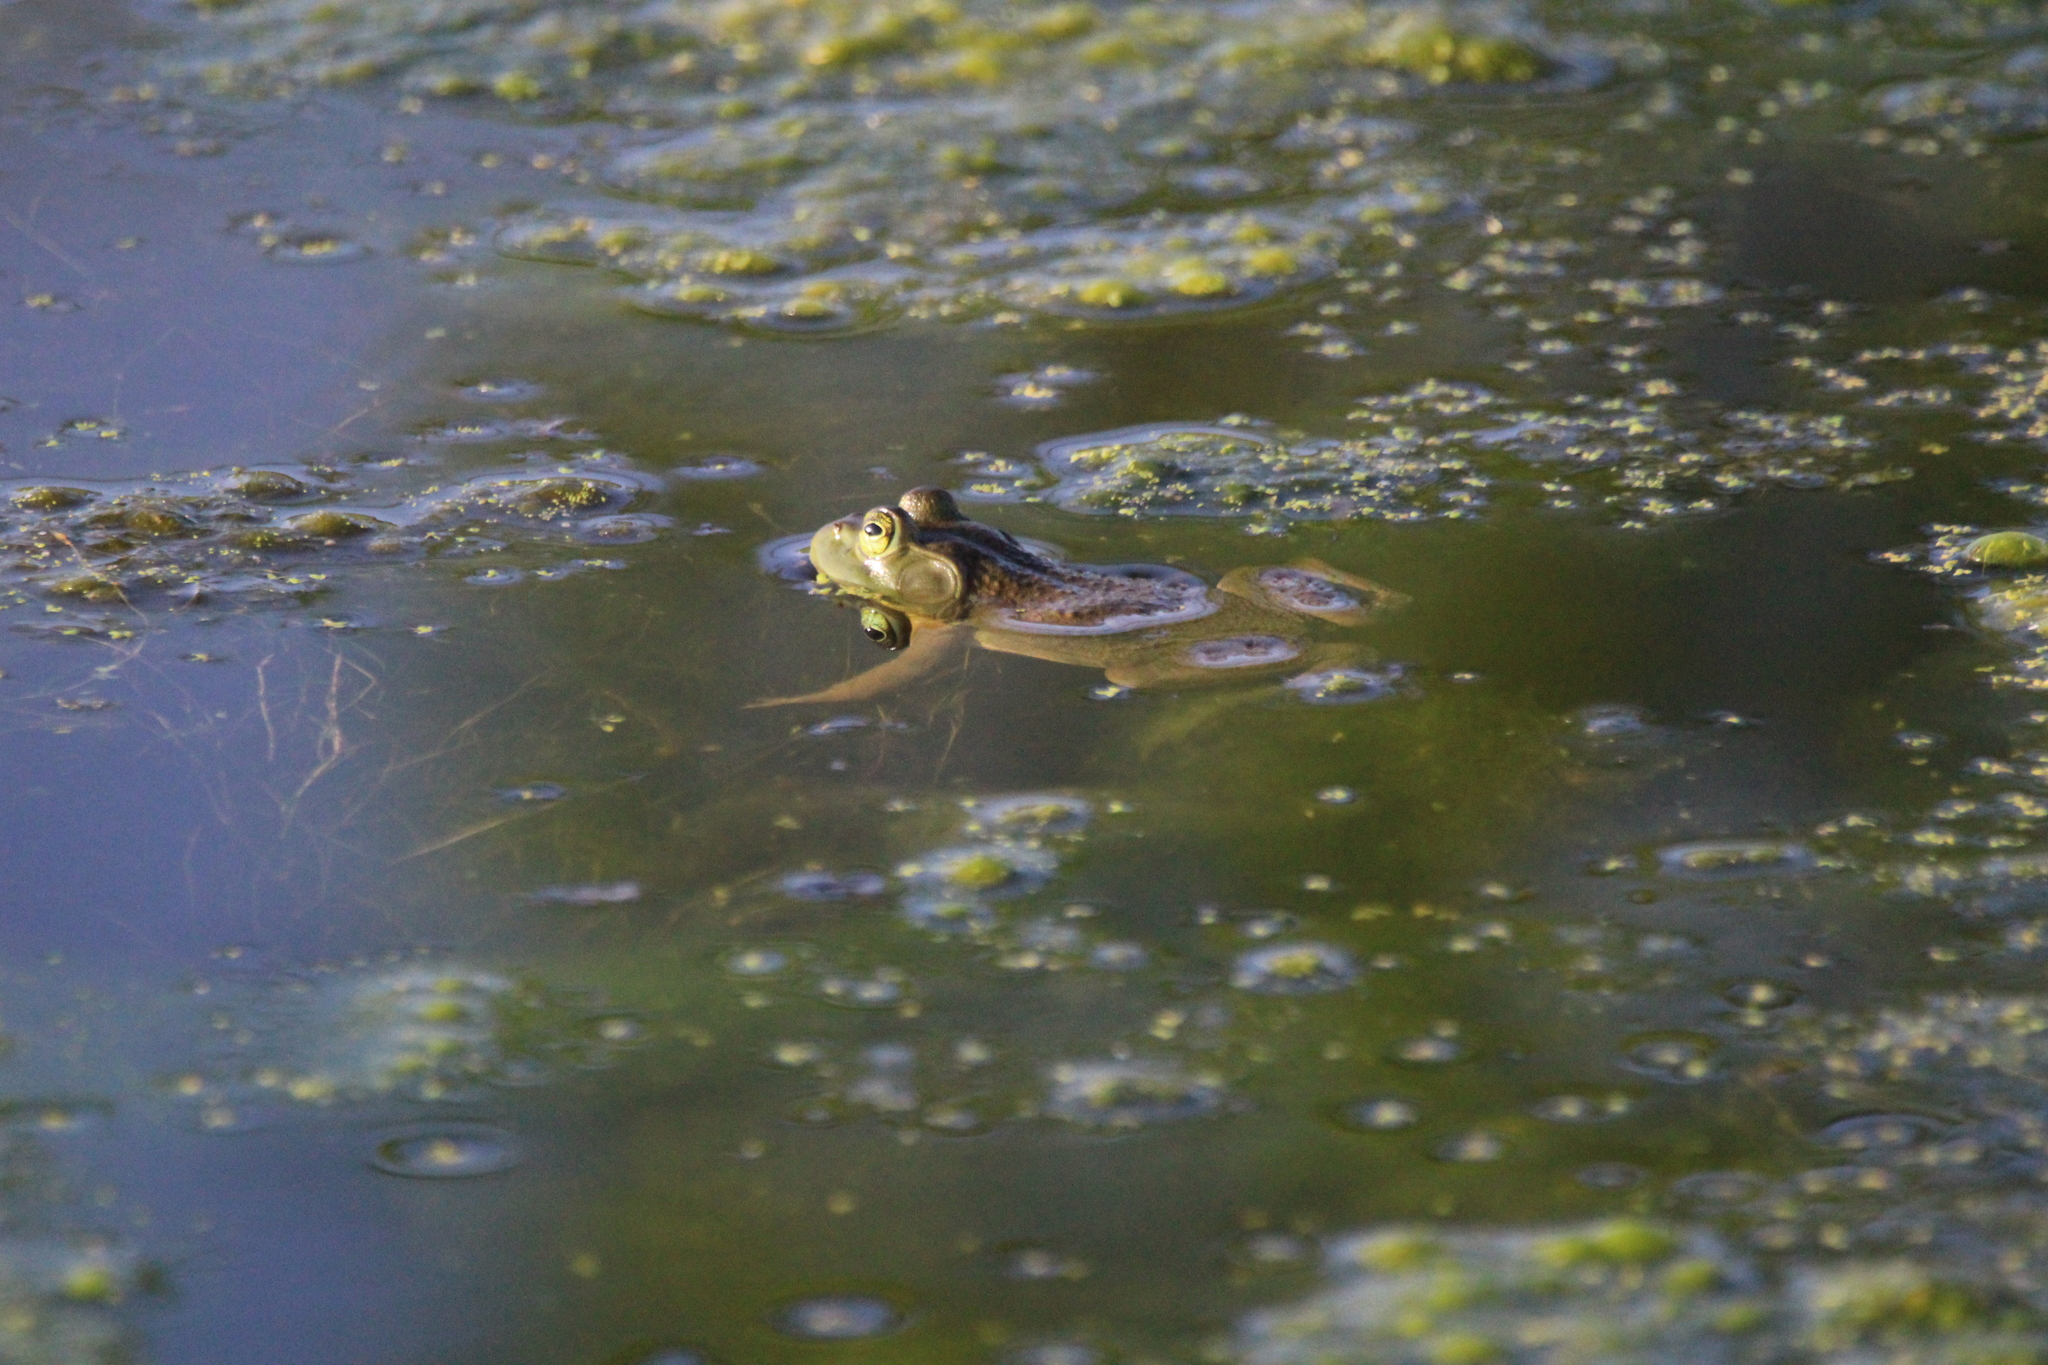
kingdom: Animalia
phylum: Chordata
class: Amphibia
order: Anura
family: Ranidae
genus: Lithobates
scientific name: Lithobates catesbeianus
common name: American bullfrog
